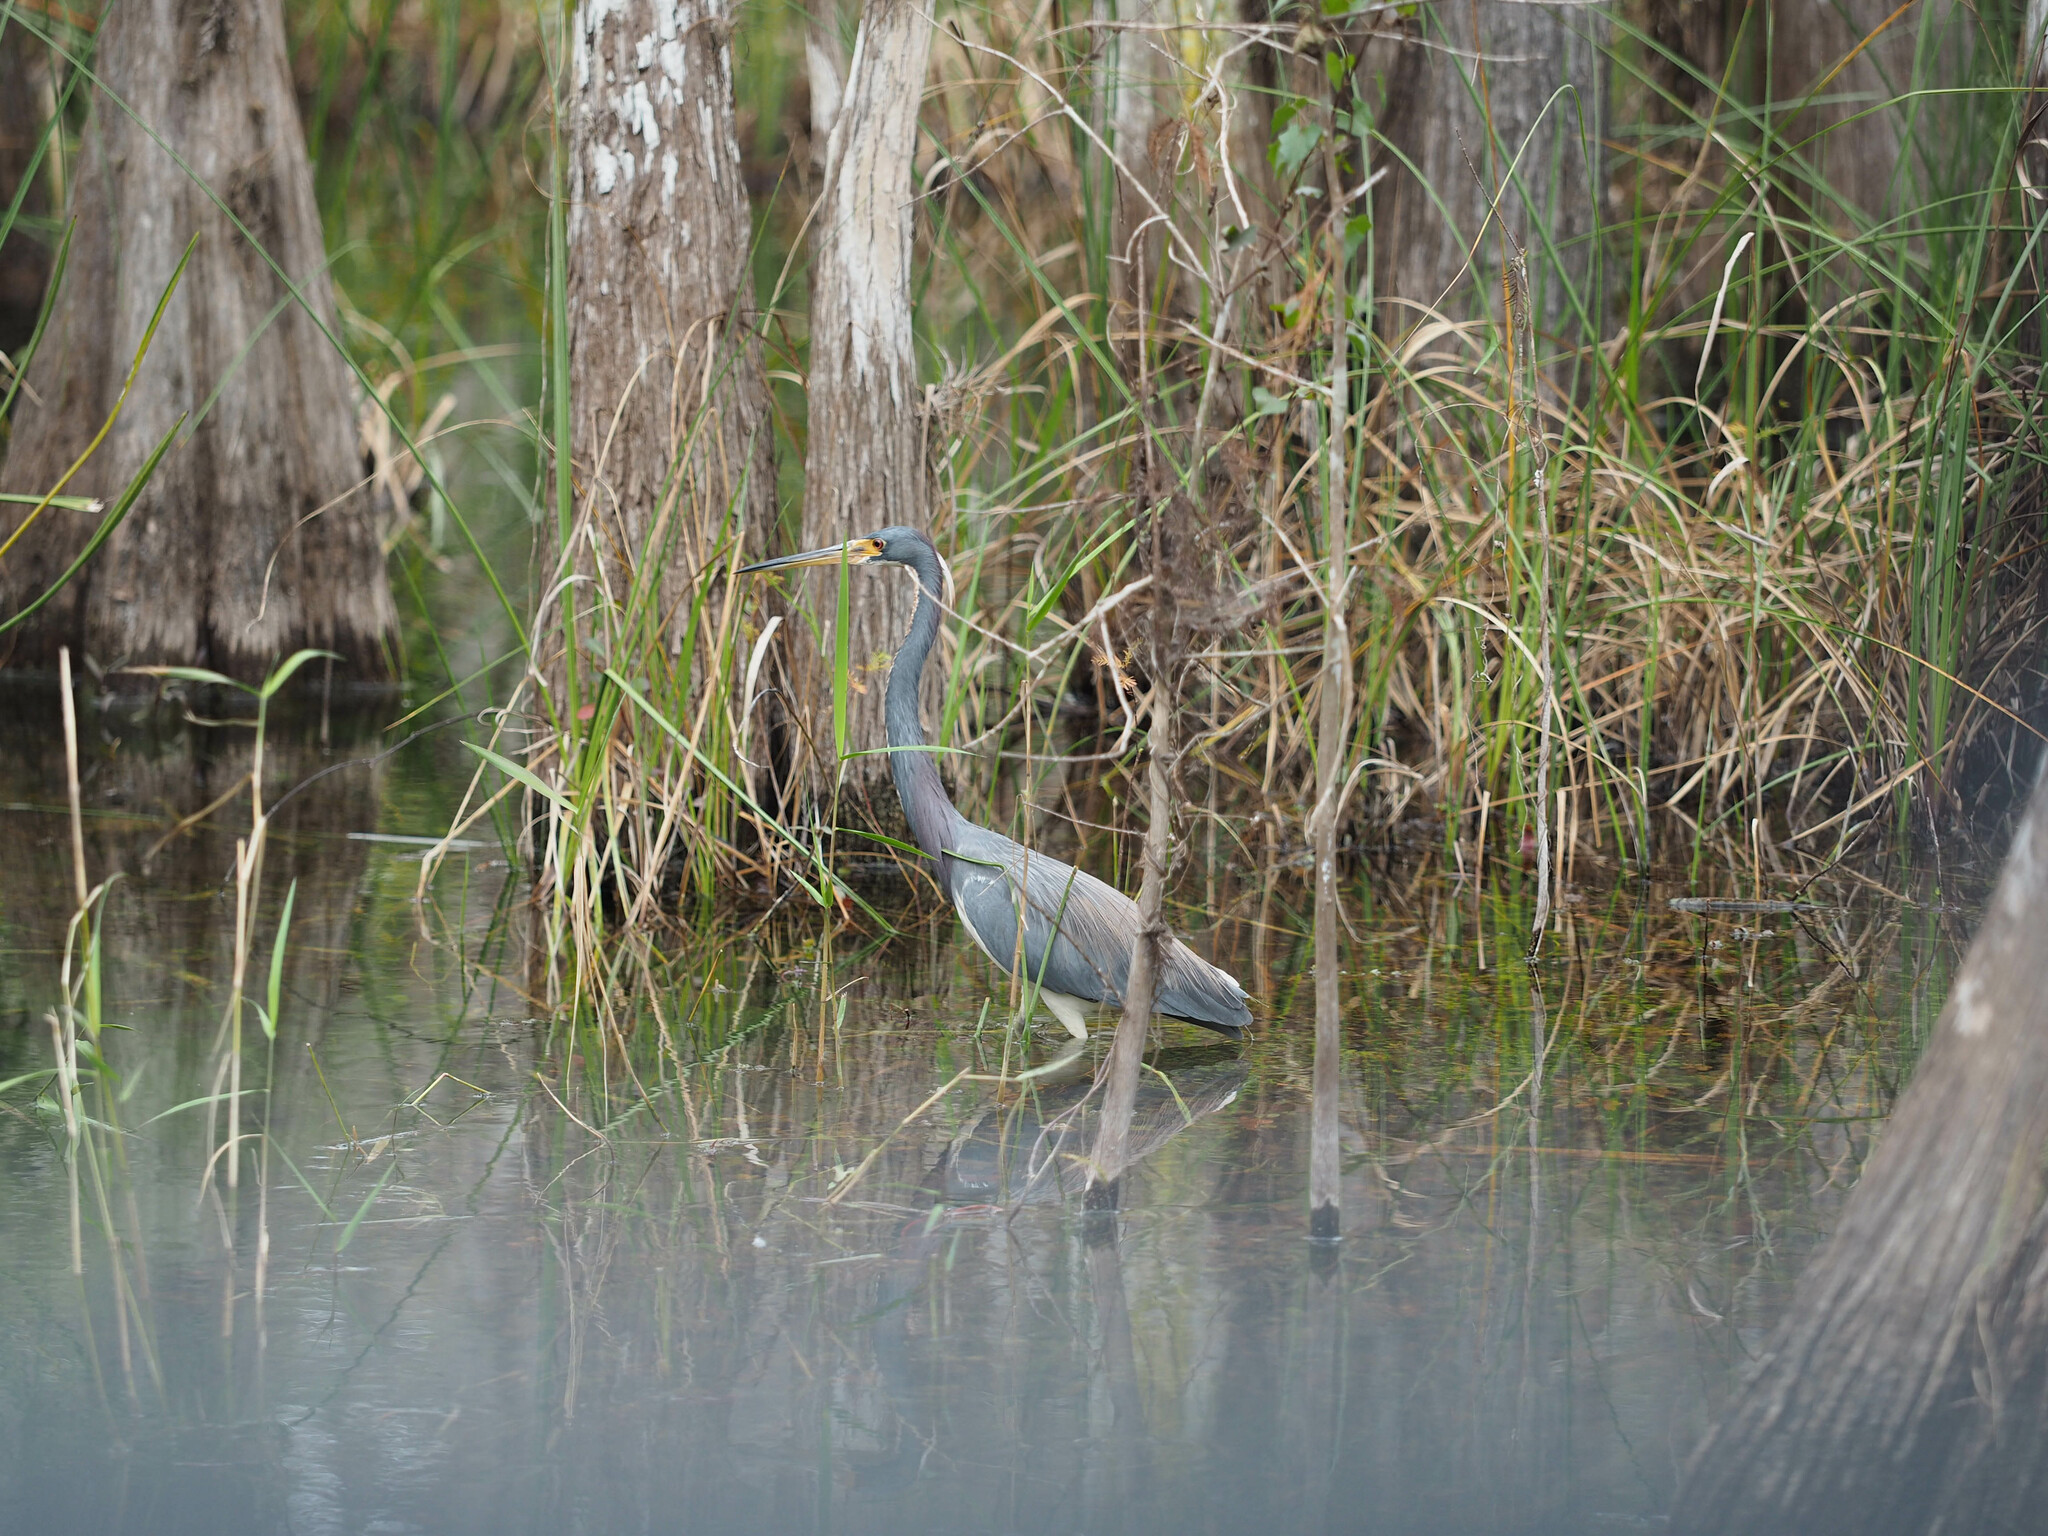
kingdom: Animalia
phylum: Chordata
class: Aves
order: Pelecaniformes
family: Ardeidae
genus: Egretta
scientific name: Egretta tricolor
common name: Tricolored heron
